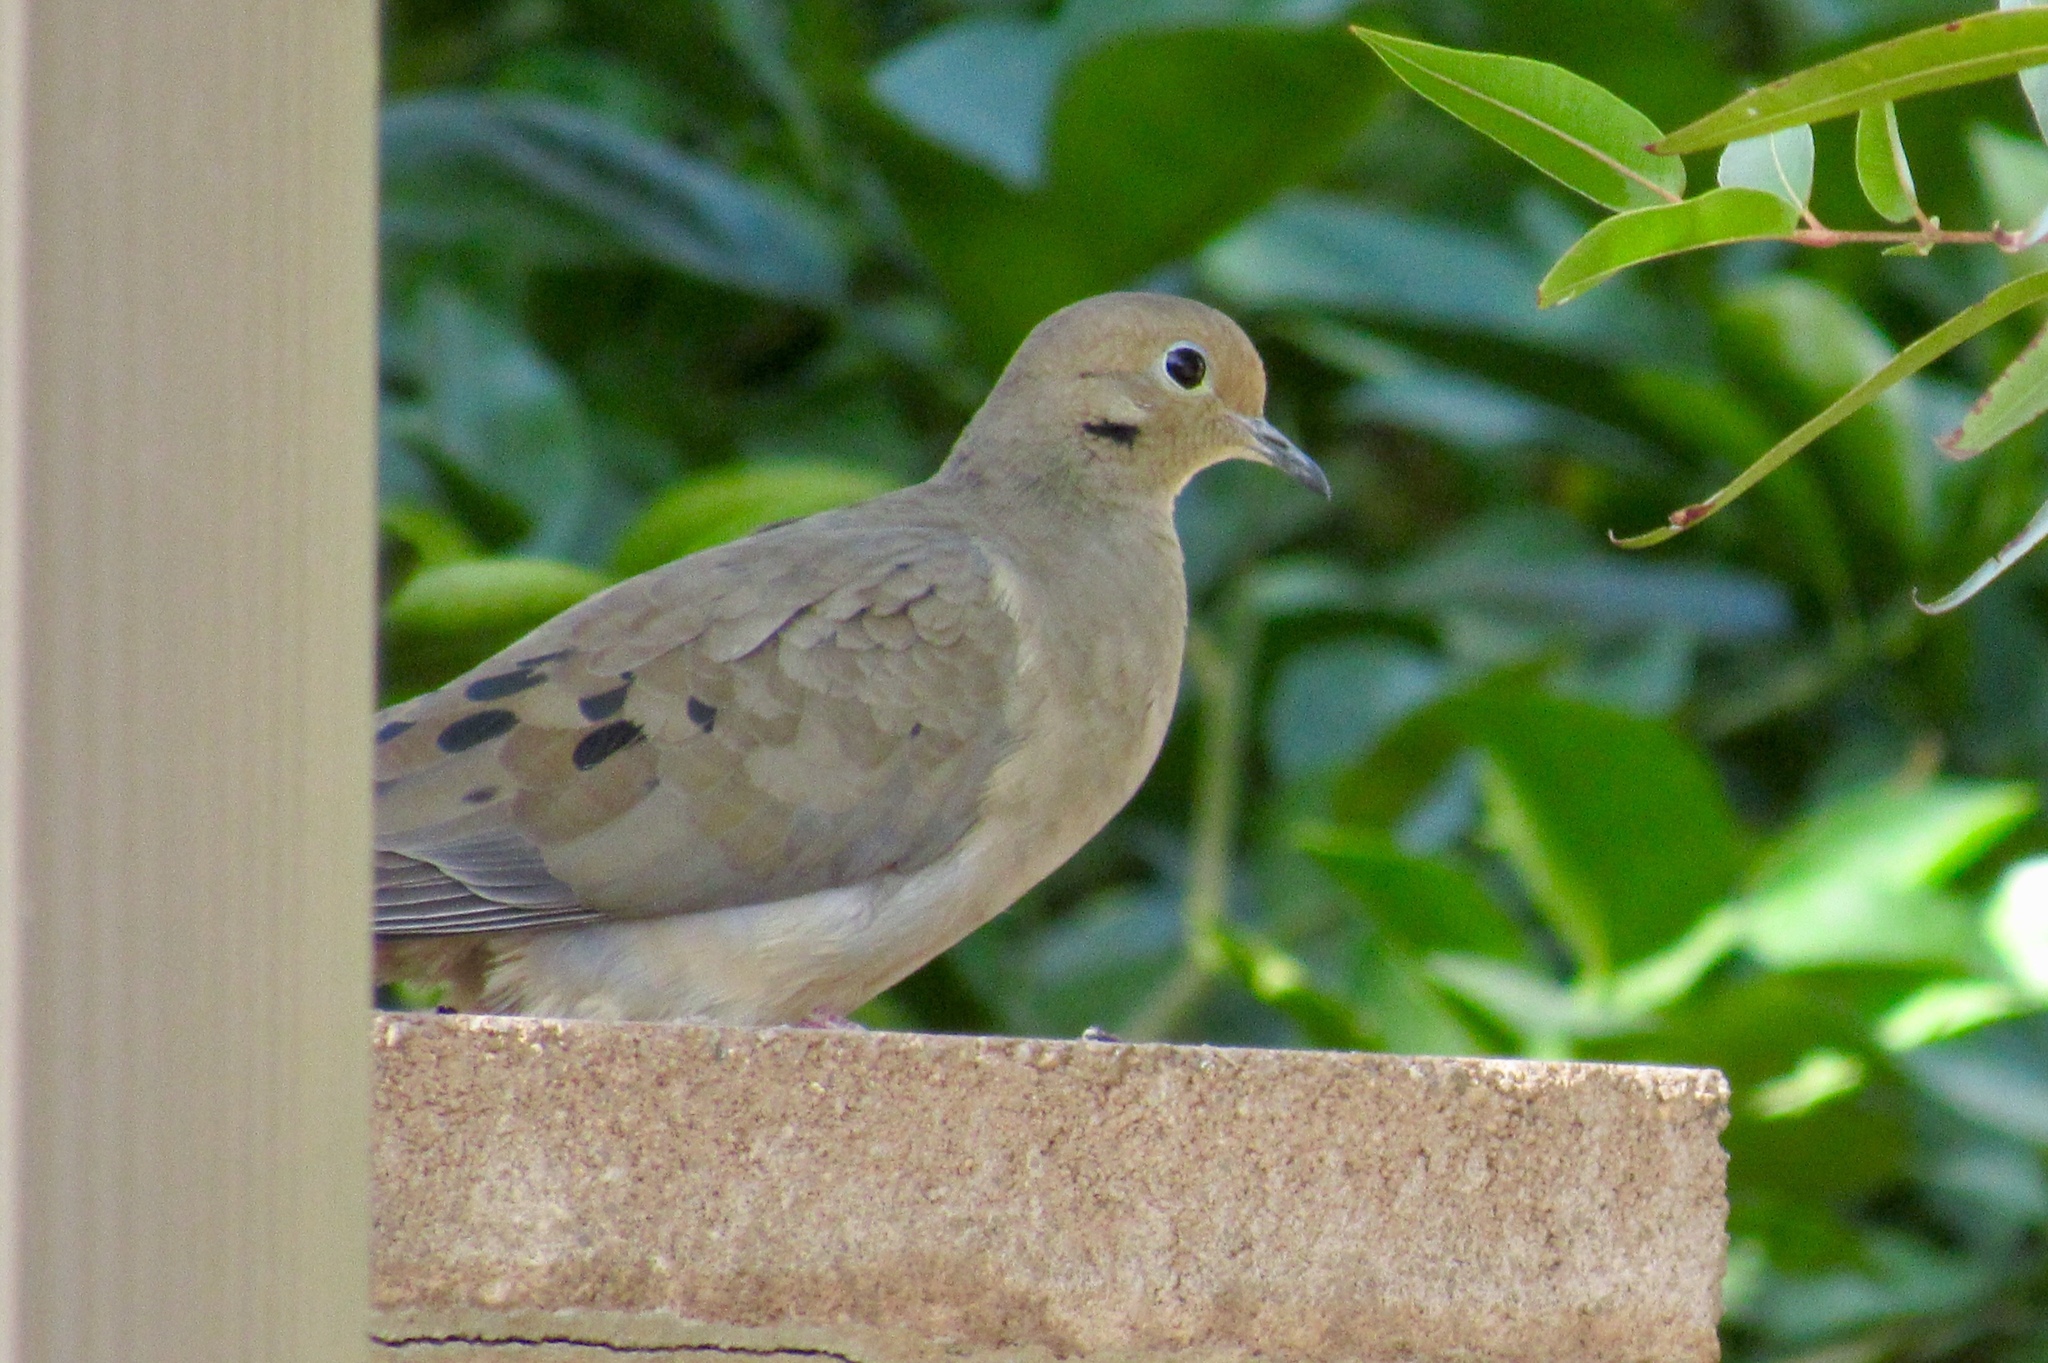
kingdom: Animalia
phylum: Chordata
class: Aves
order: Columbiformes
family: Columbidae
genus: Zenaida
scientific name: Zenaida macroura
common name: Mourning dove
